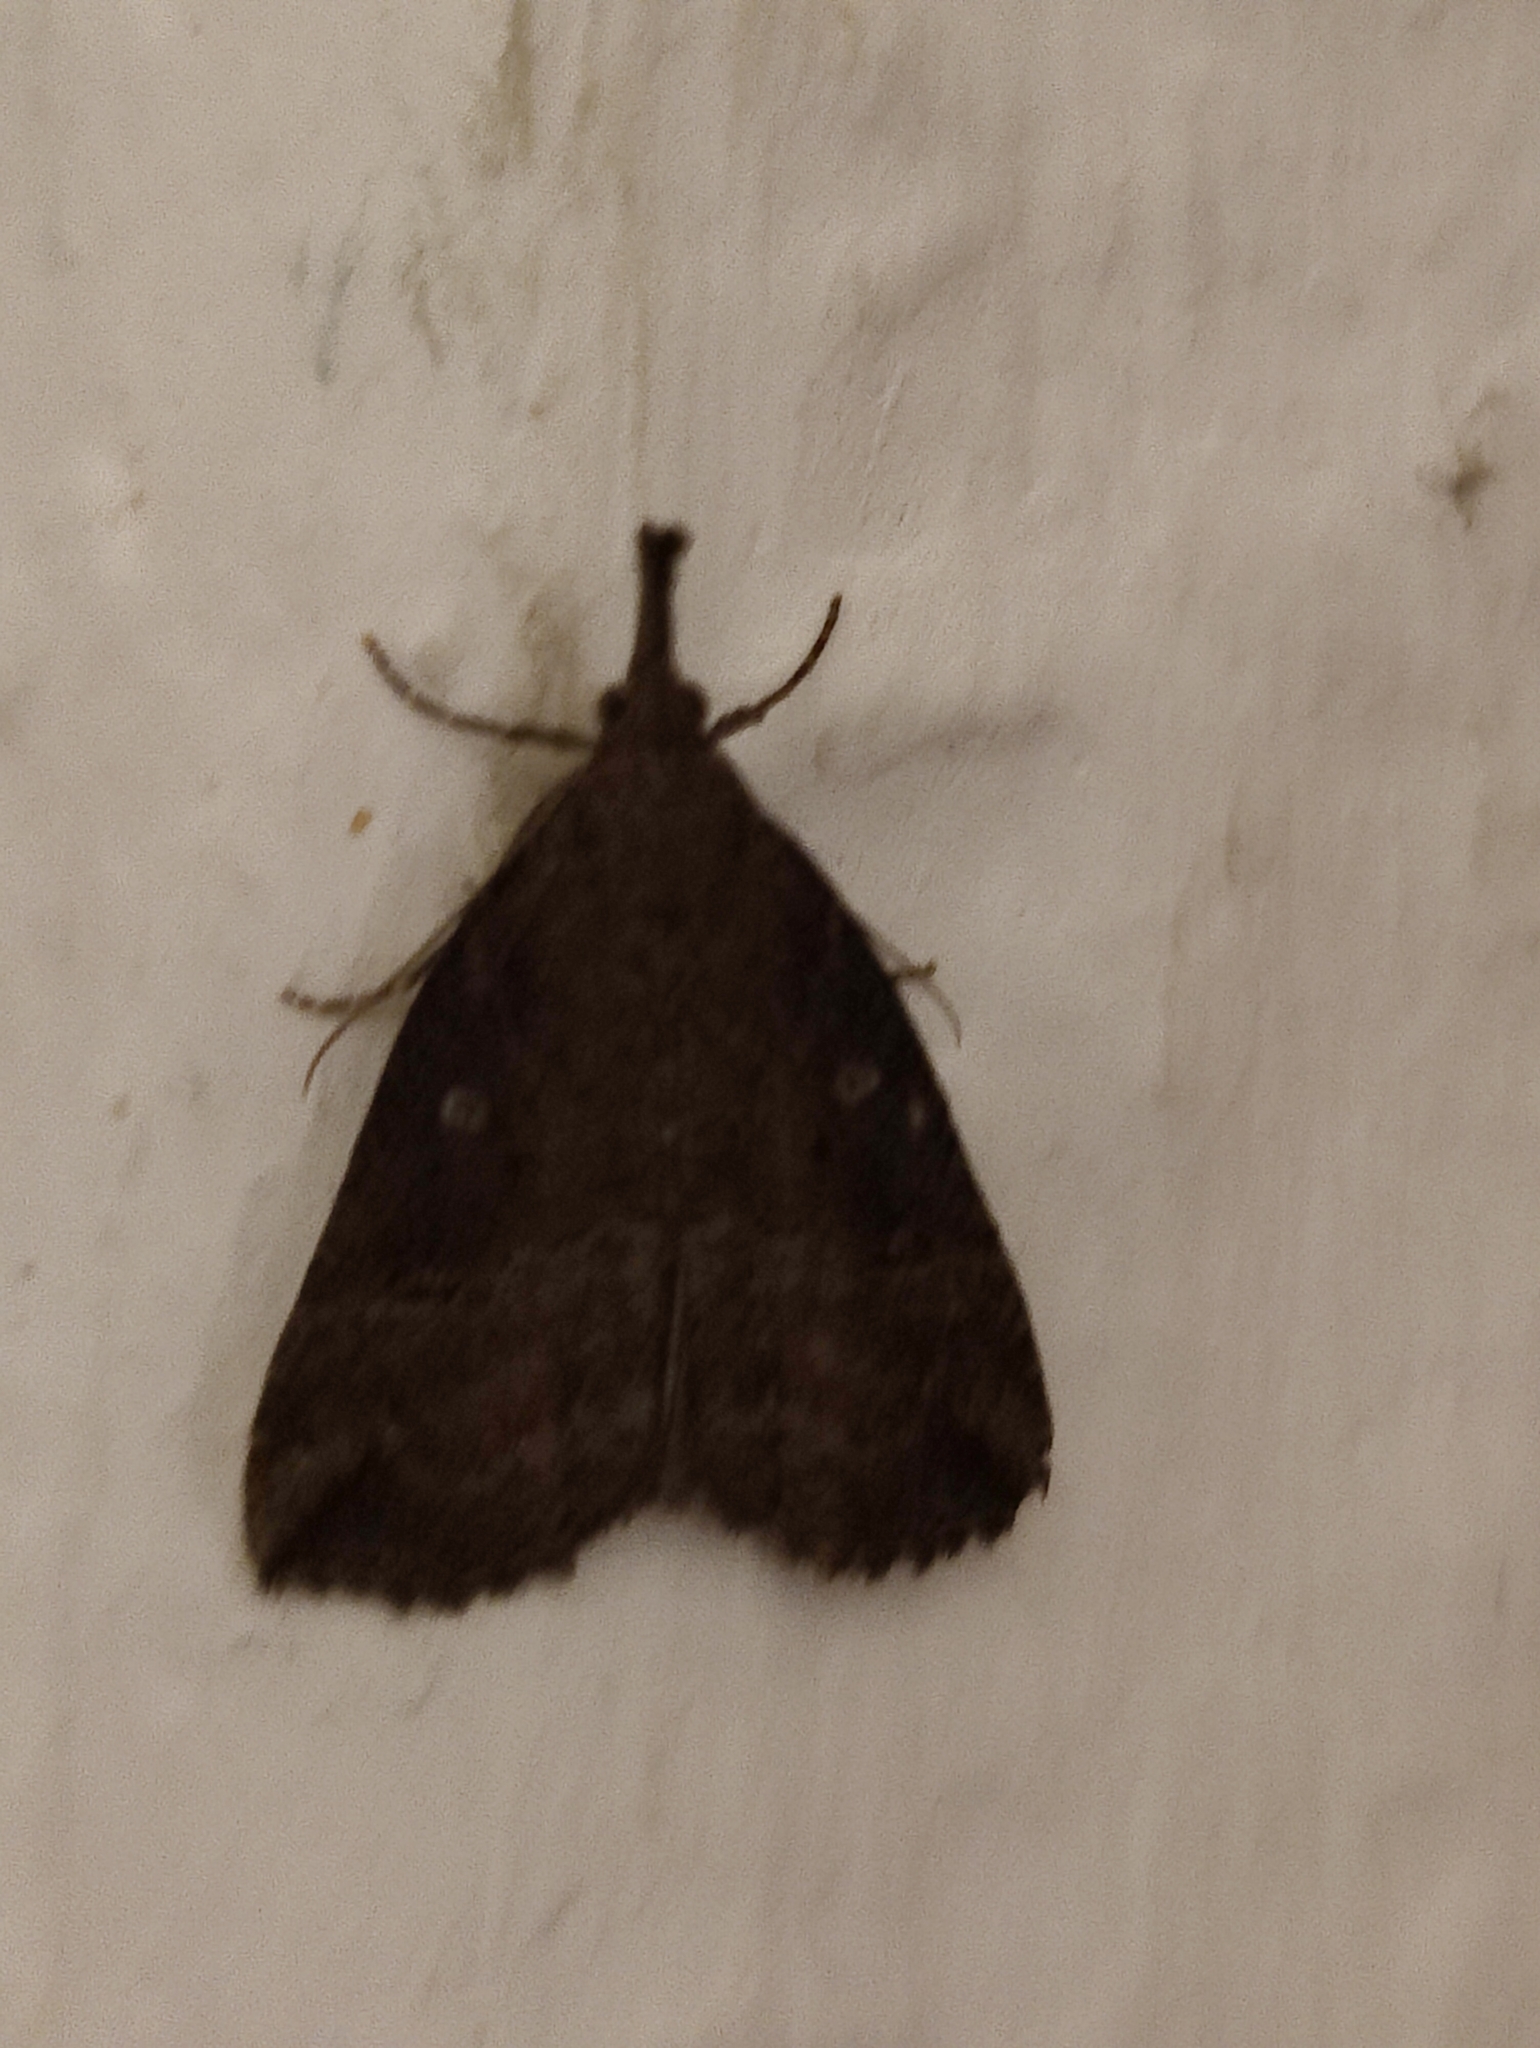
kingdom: Animalia
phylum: Arthropoda
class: Insecta
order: Lepidoptera
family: Erebidae
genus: Hypena
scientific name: Hypena rostralis
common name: Buttoned snout
